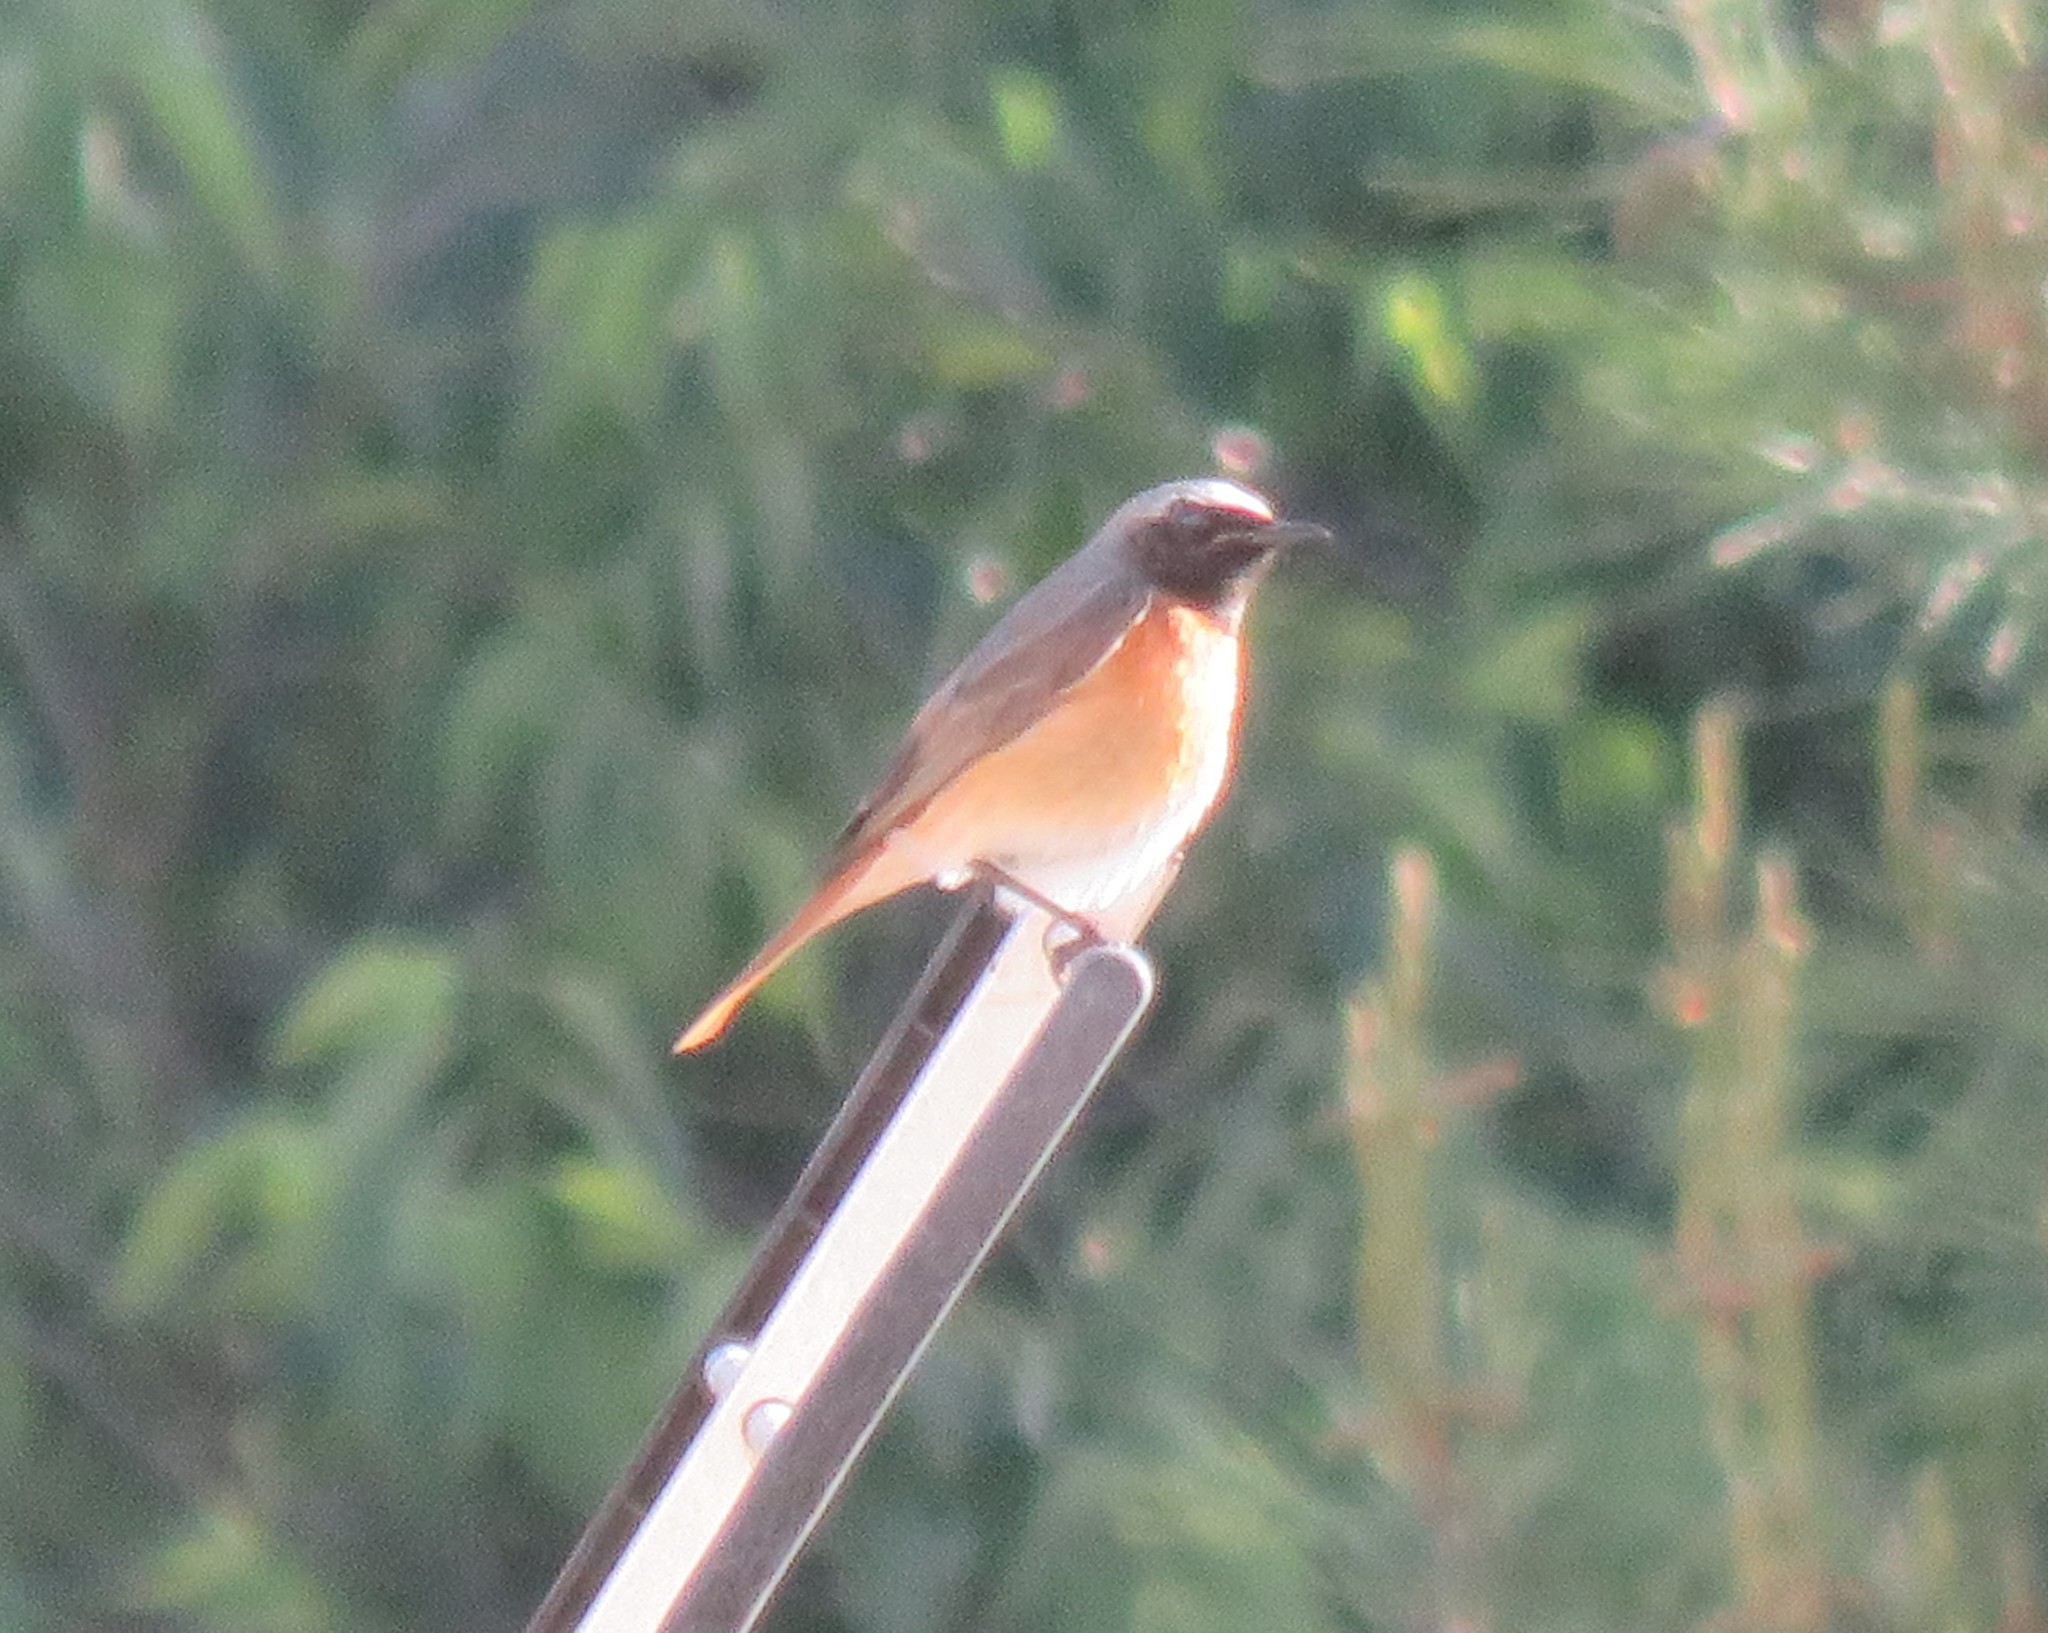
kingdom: Animalia
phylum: Chordata
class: Aves
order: Passeriformes
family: Muscicapidae
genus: Phoenicurus
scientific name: Phoenicurus phoenicurus
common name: Common redstart
